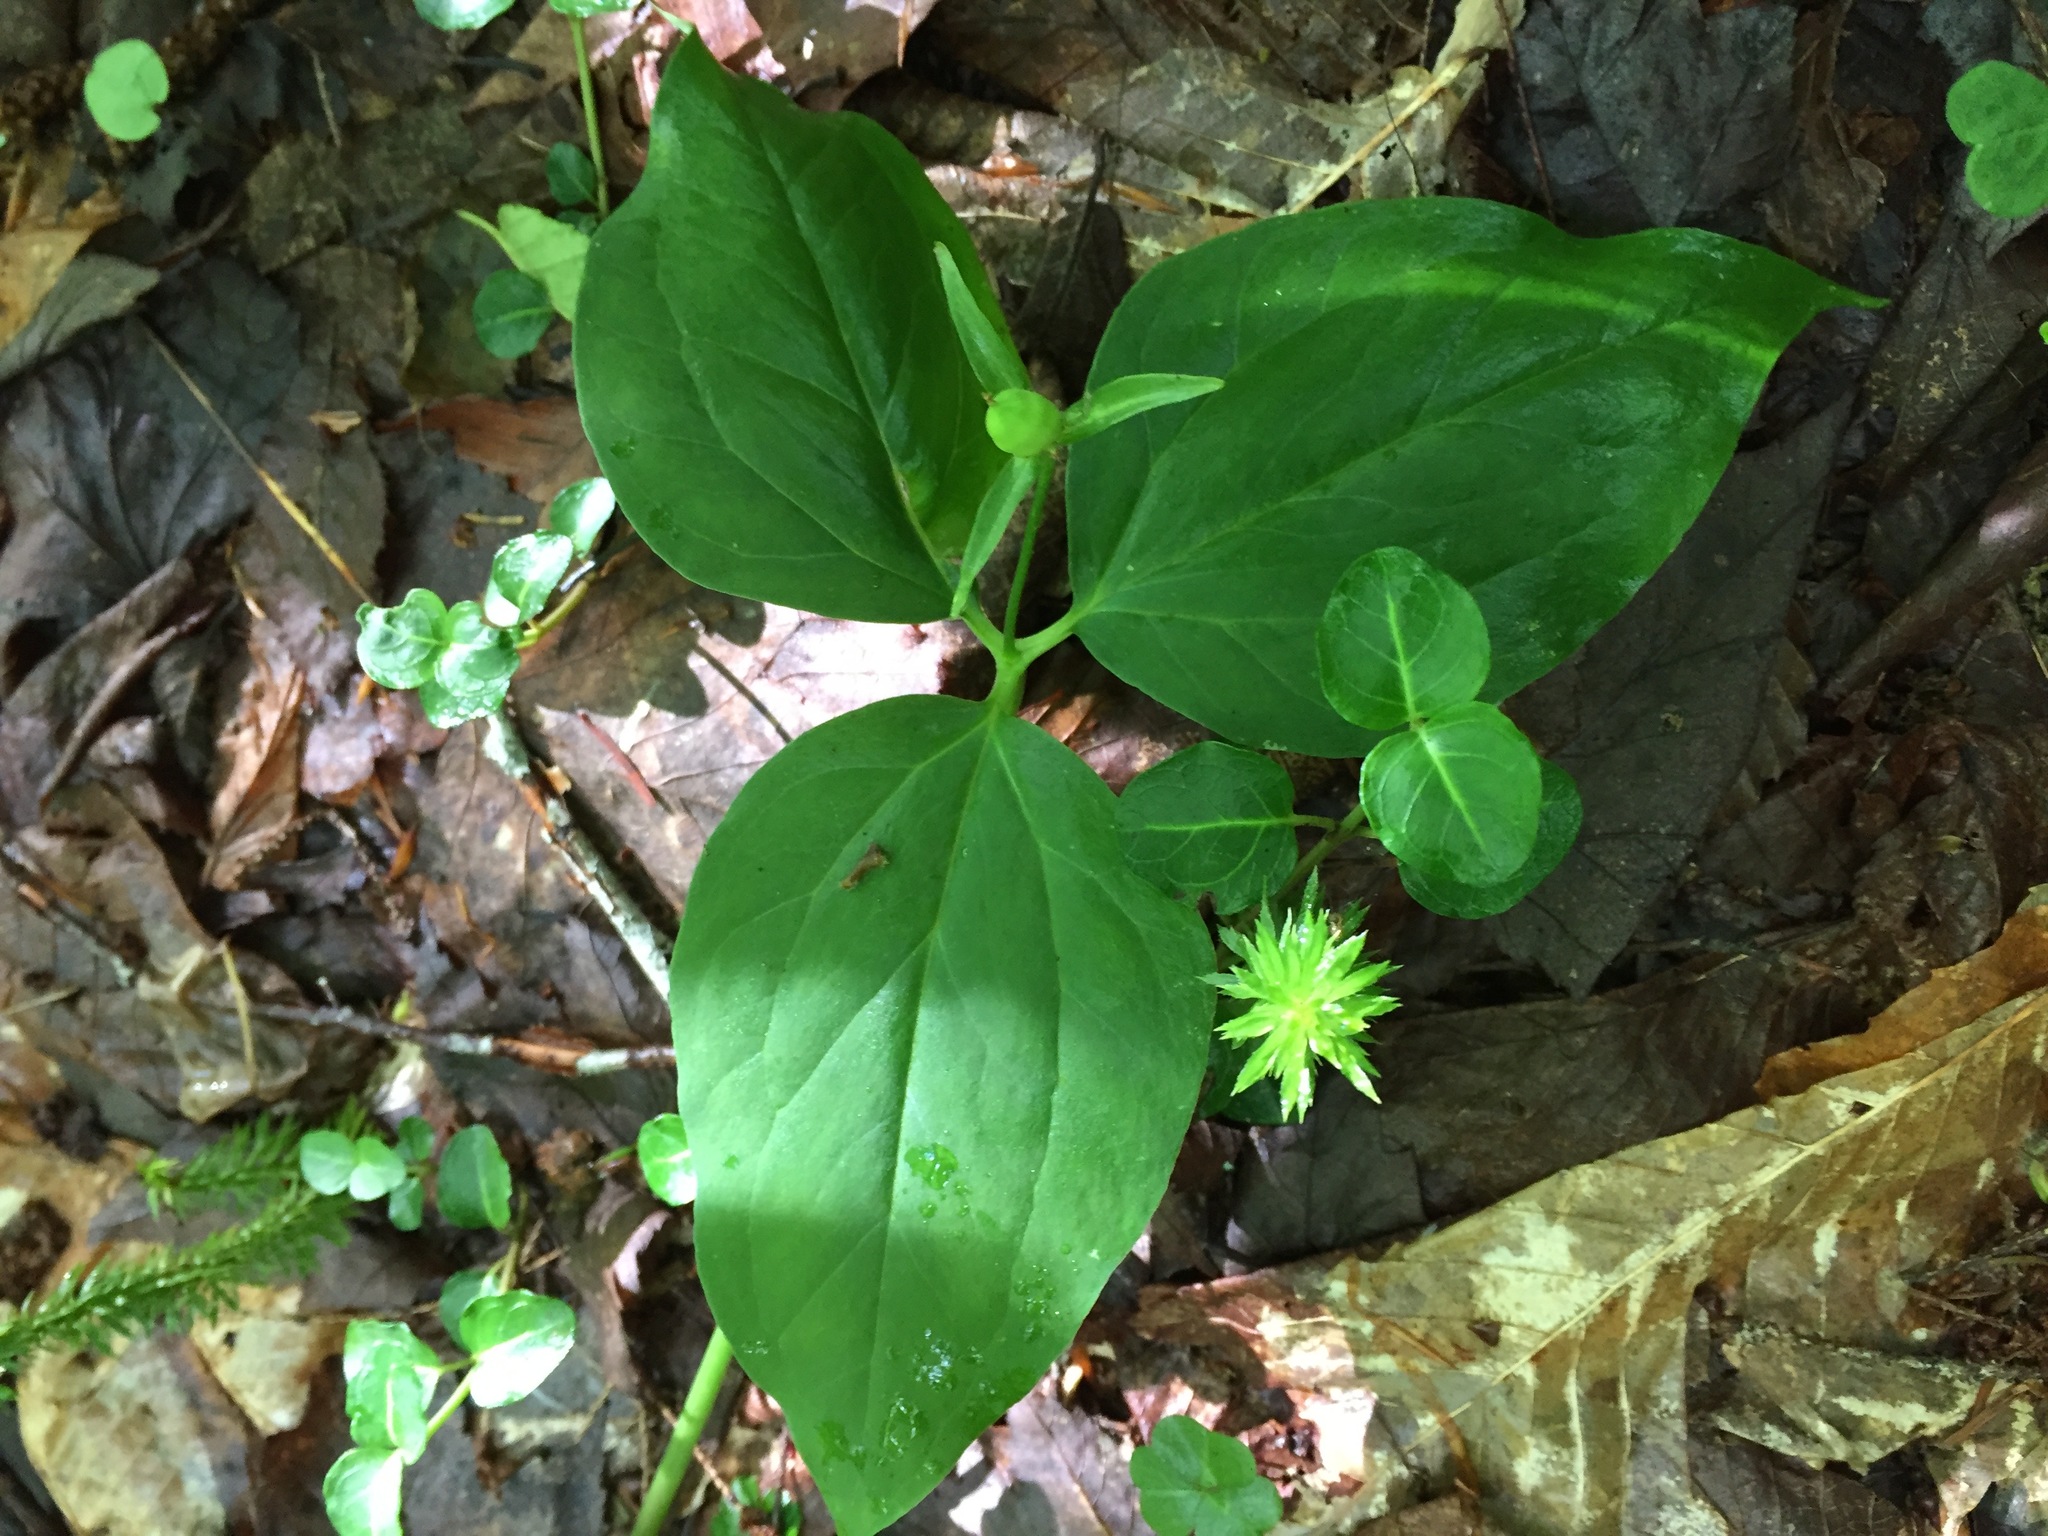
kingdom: Plantae
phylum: Tracheophyta
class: Liliopsida
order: Liliales
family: Melanthiaceae
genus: Trillium
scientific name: Trillium undulatum
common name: Paint trillium
